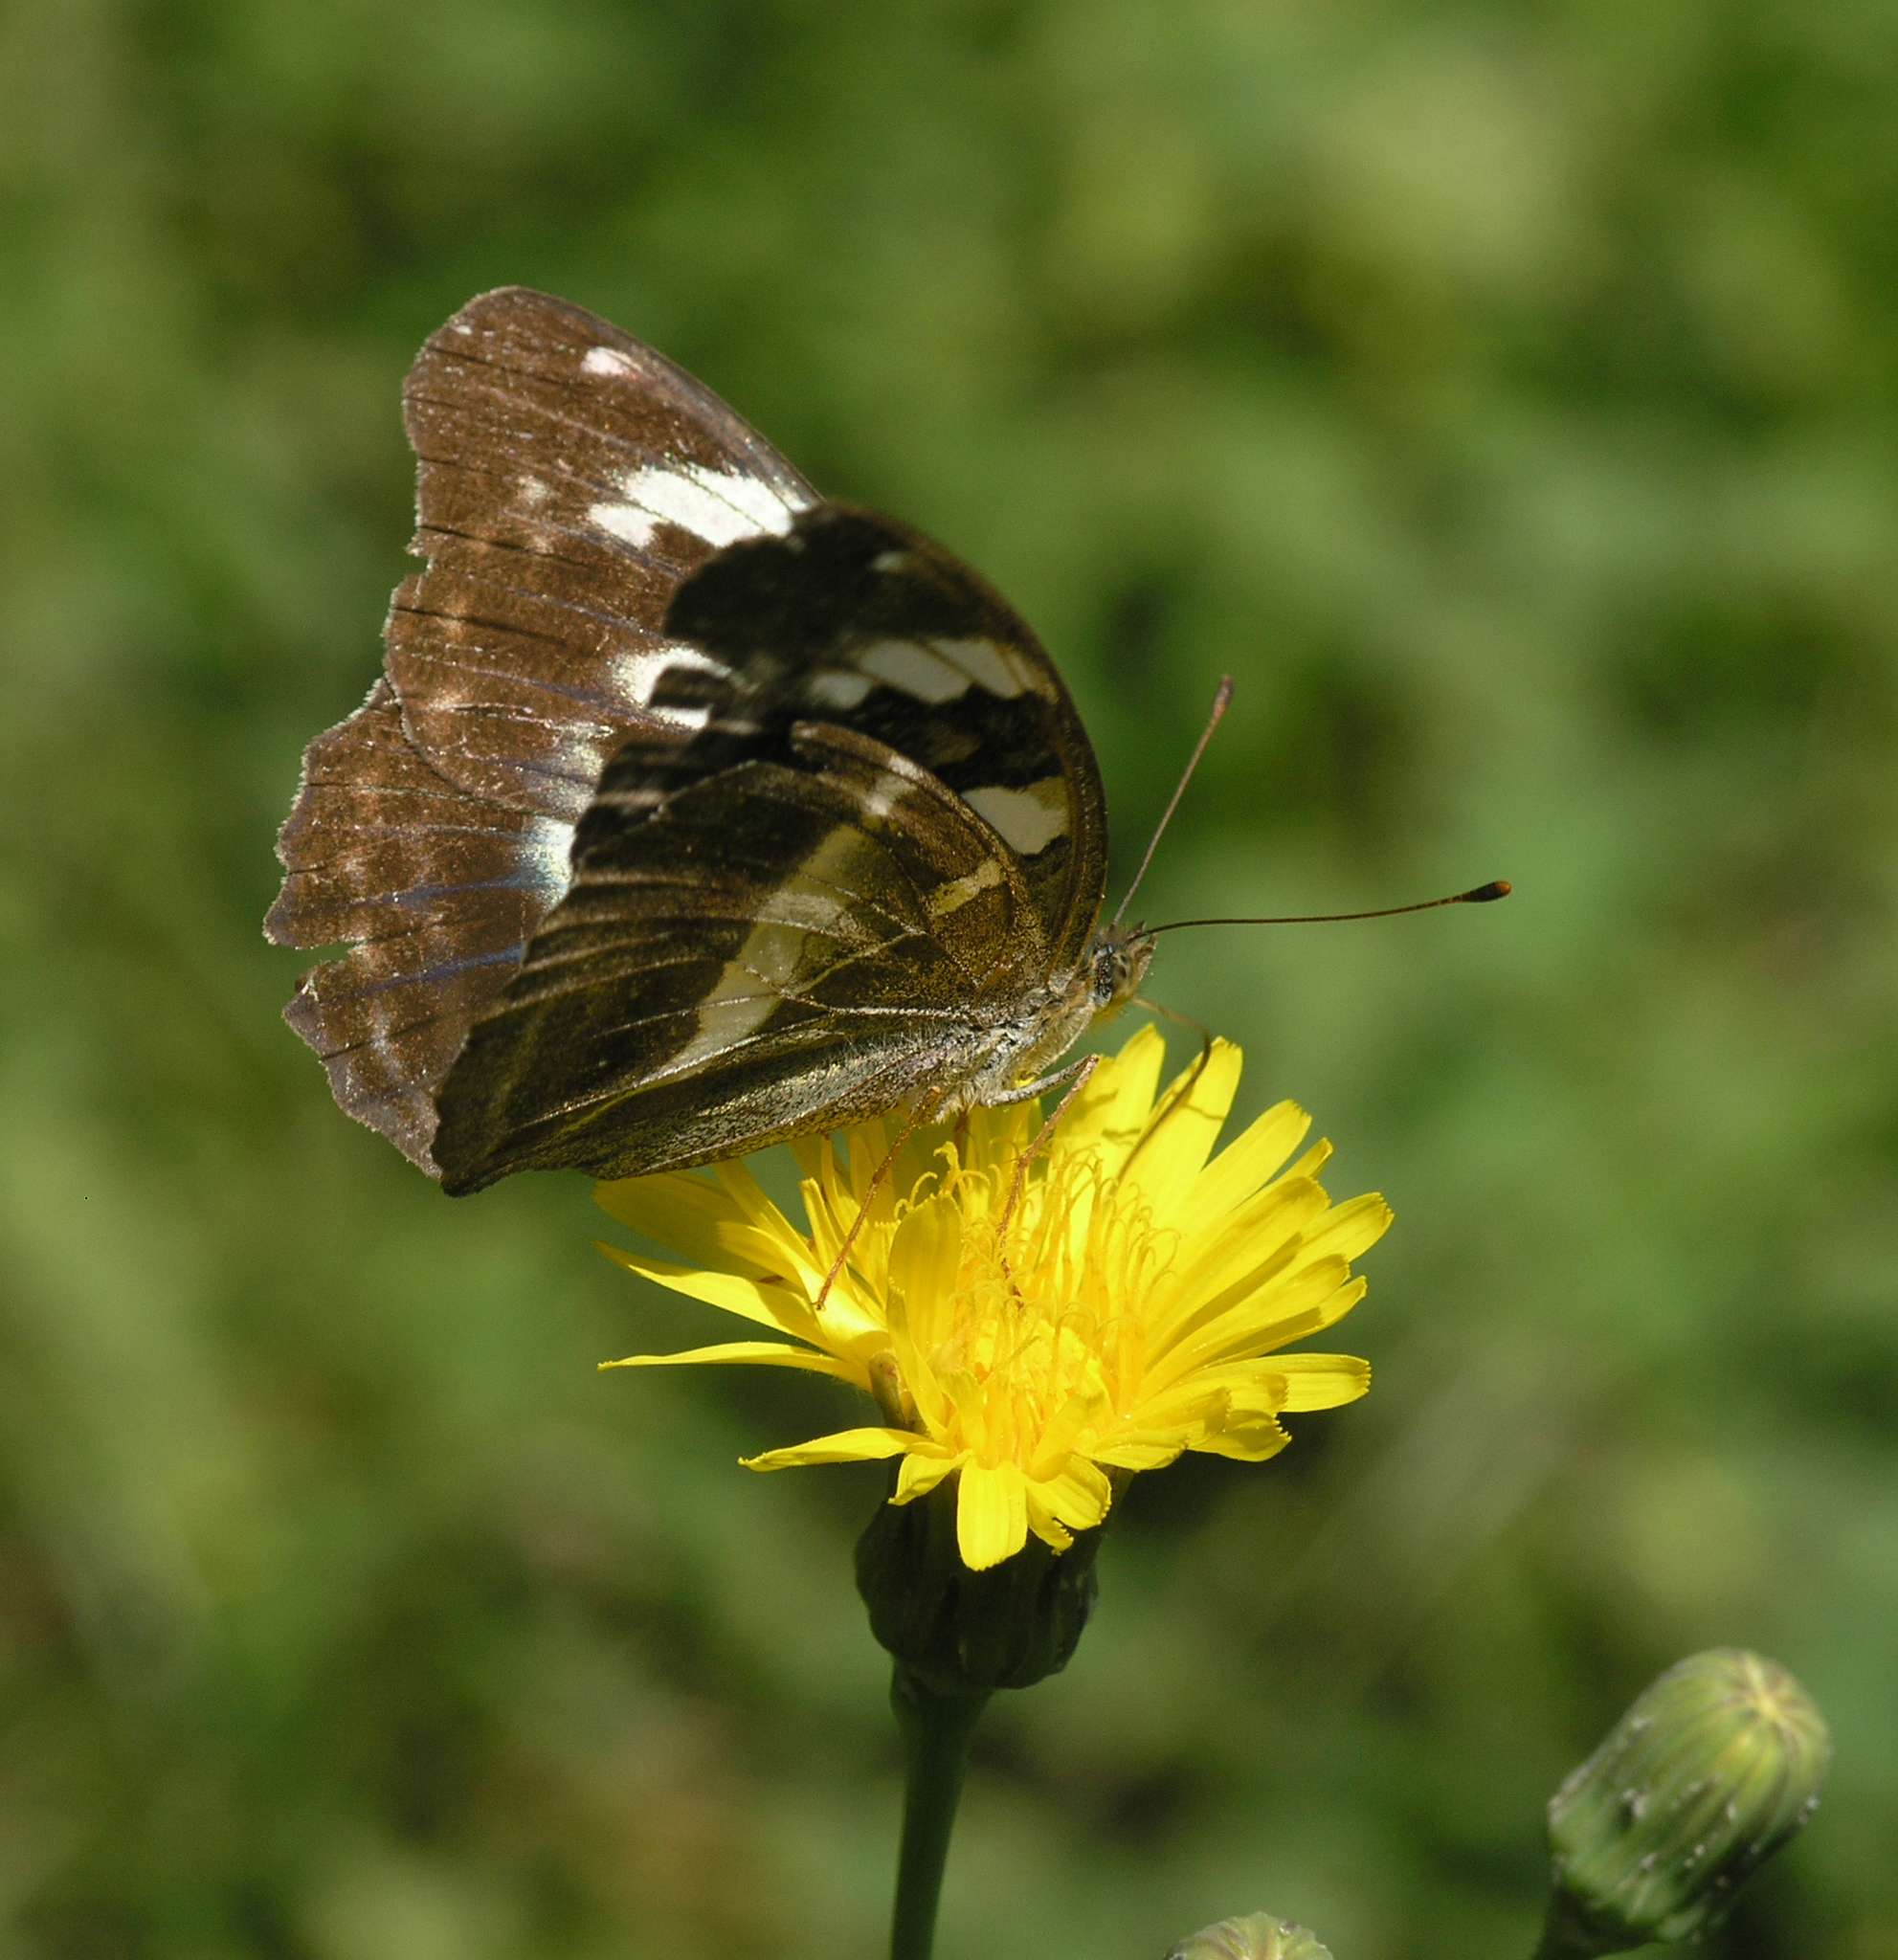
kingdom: Animalia
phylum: Arthropoda
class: Insecta
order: Lepidoptera
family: Nymphalidae
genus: Damora
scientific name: Damora sagana
